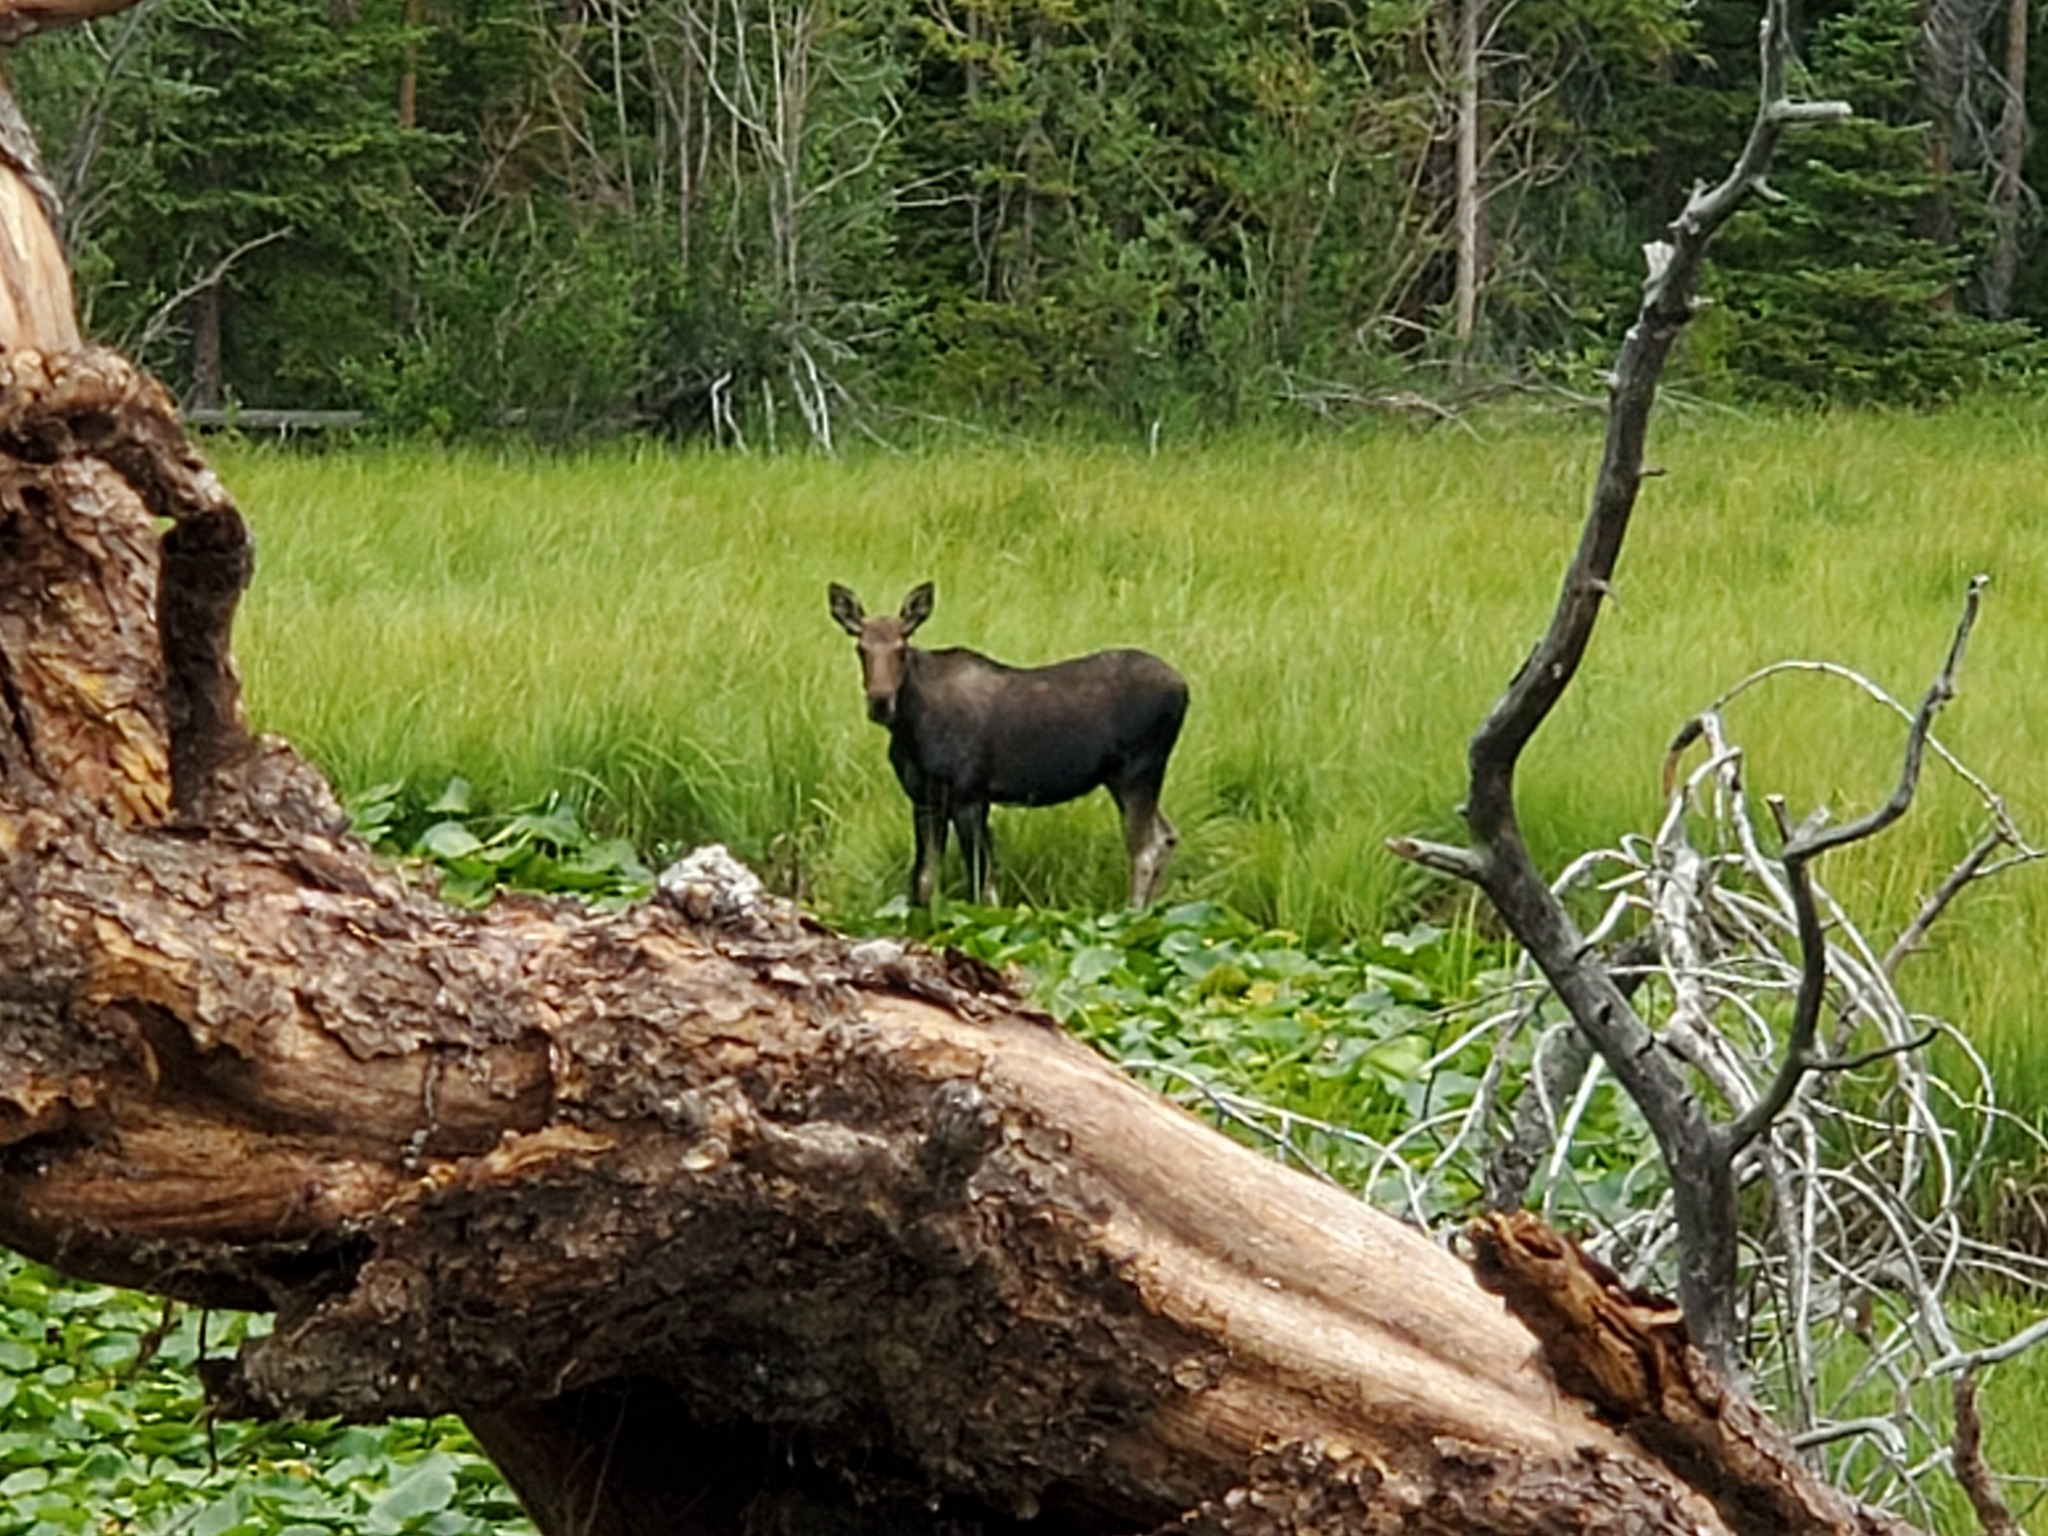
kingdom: Animalia
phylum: Chordata
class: Mammalia
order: Artiodactyla
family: Cervidae
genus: Alces
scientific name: Alces americanus
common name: Moose
